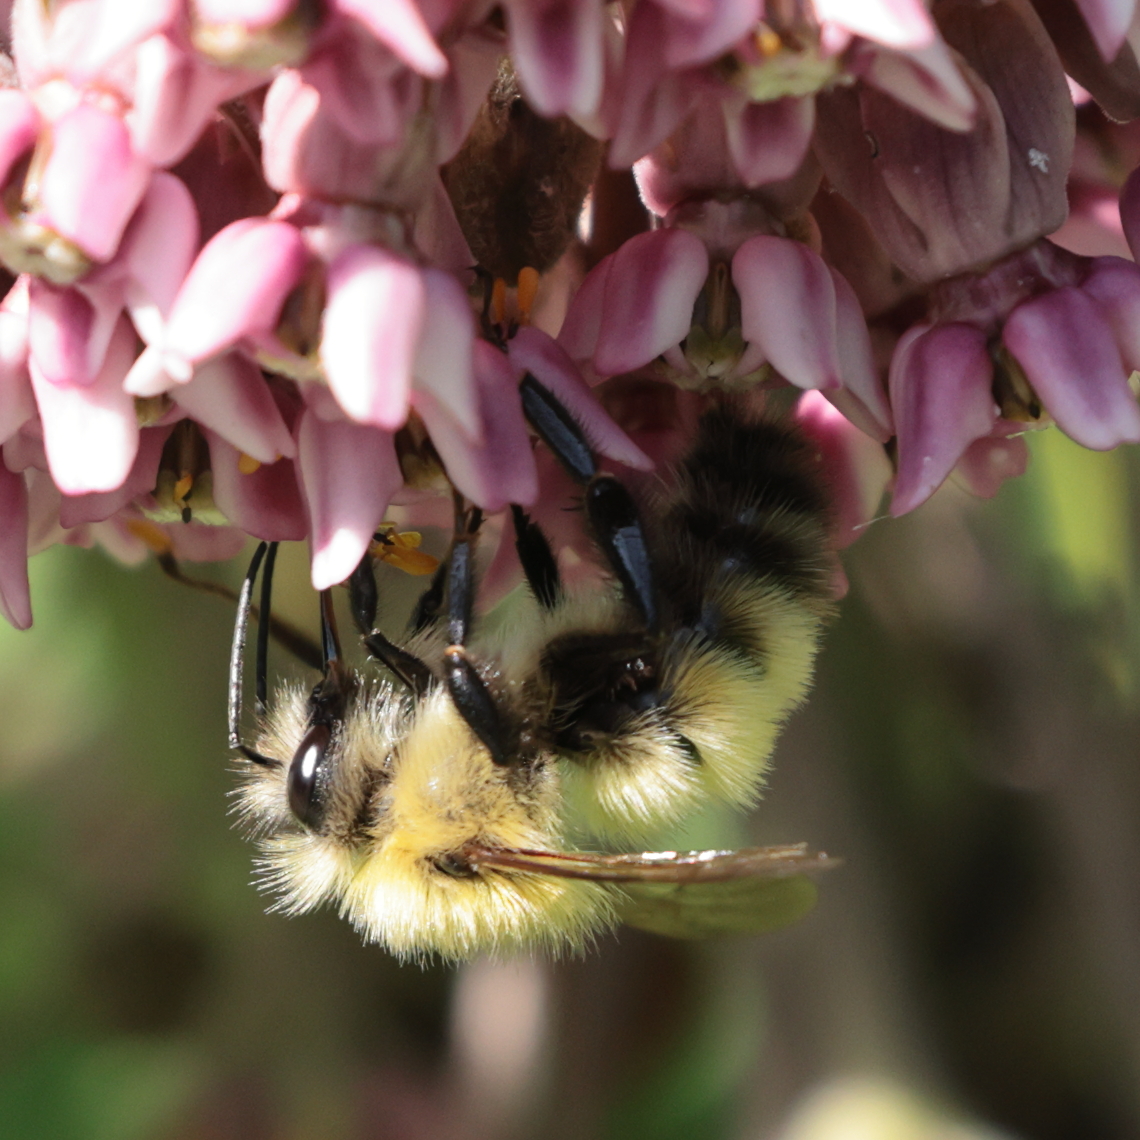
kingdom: Animalia
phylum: Arthropoda
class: Insecta
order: Hymenoptera
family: Apidae
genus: Bombus
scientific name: Bombus perplexus
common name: Confusing bumble bee
